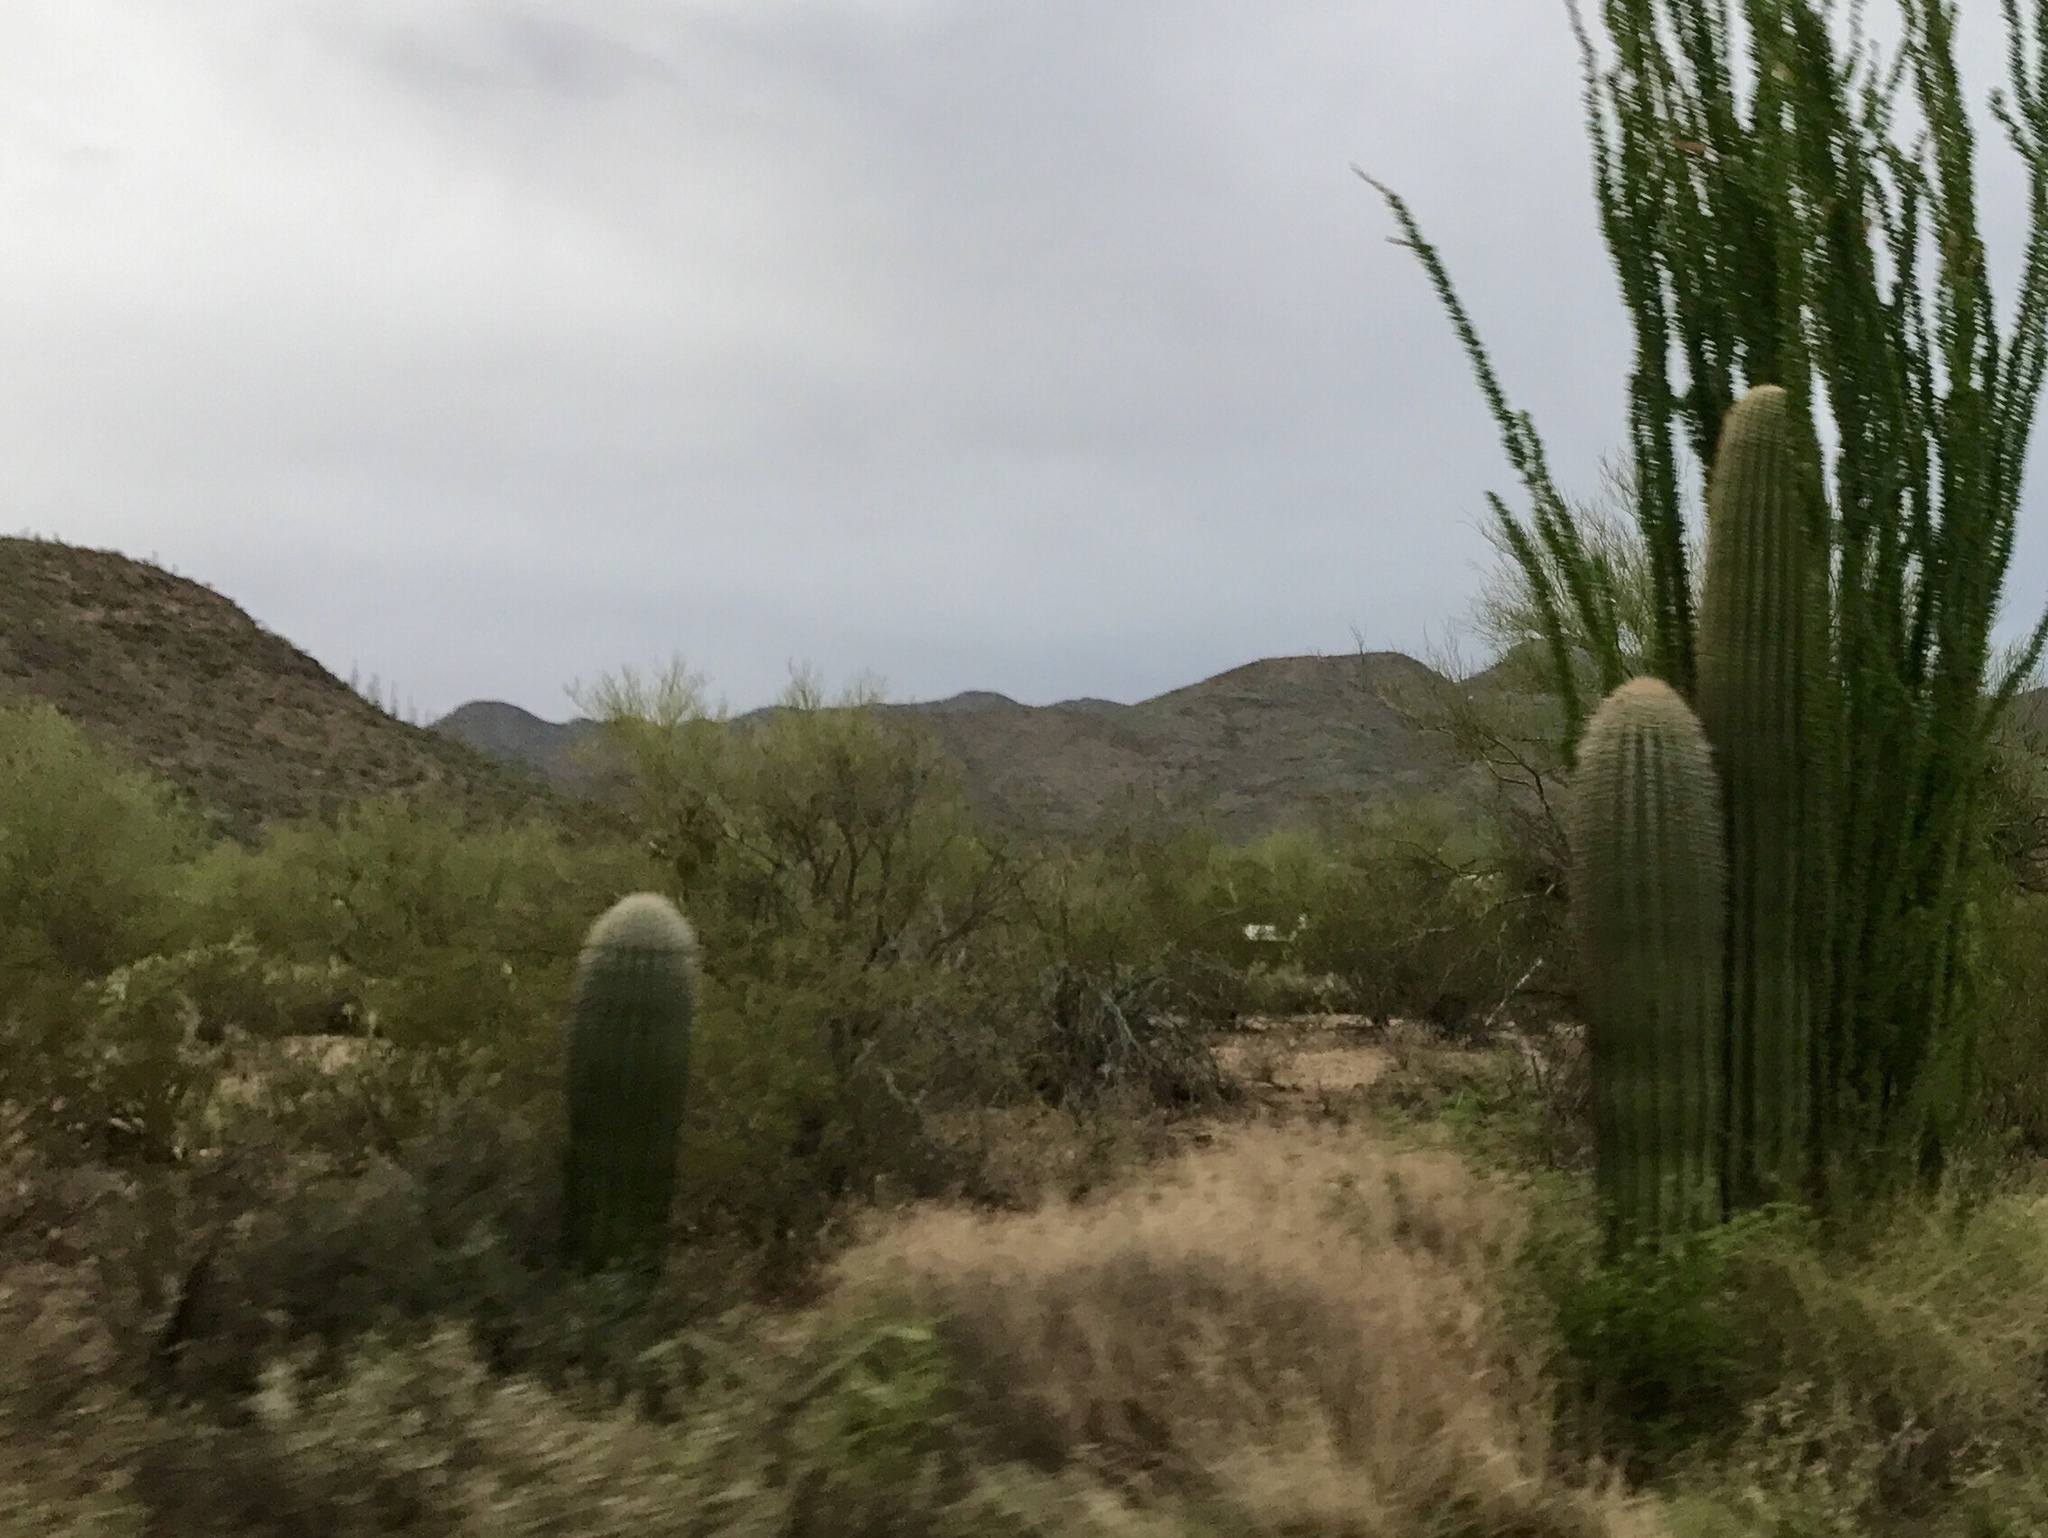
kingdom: Plantae
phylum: Tracheophyta
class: Magnoliopsida
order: Caryophyllales
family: Cactaceae
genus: Carnegiea
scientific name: Carnegiea gigantea
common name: Saguaro
